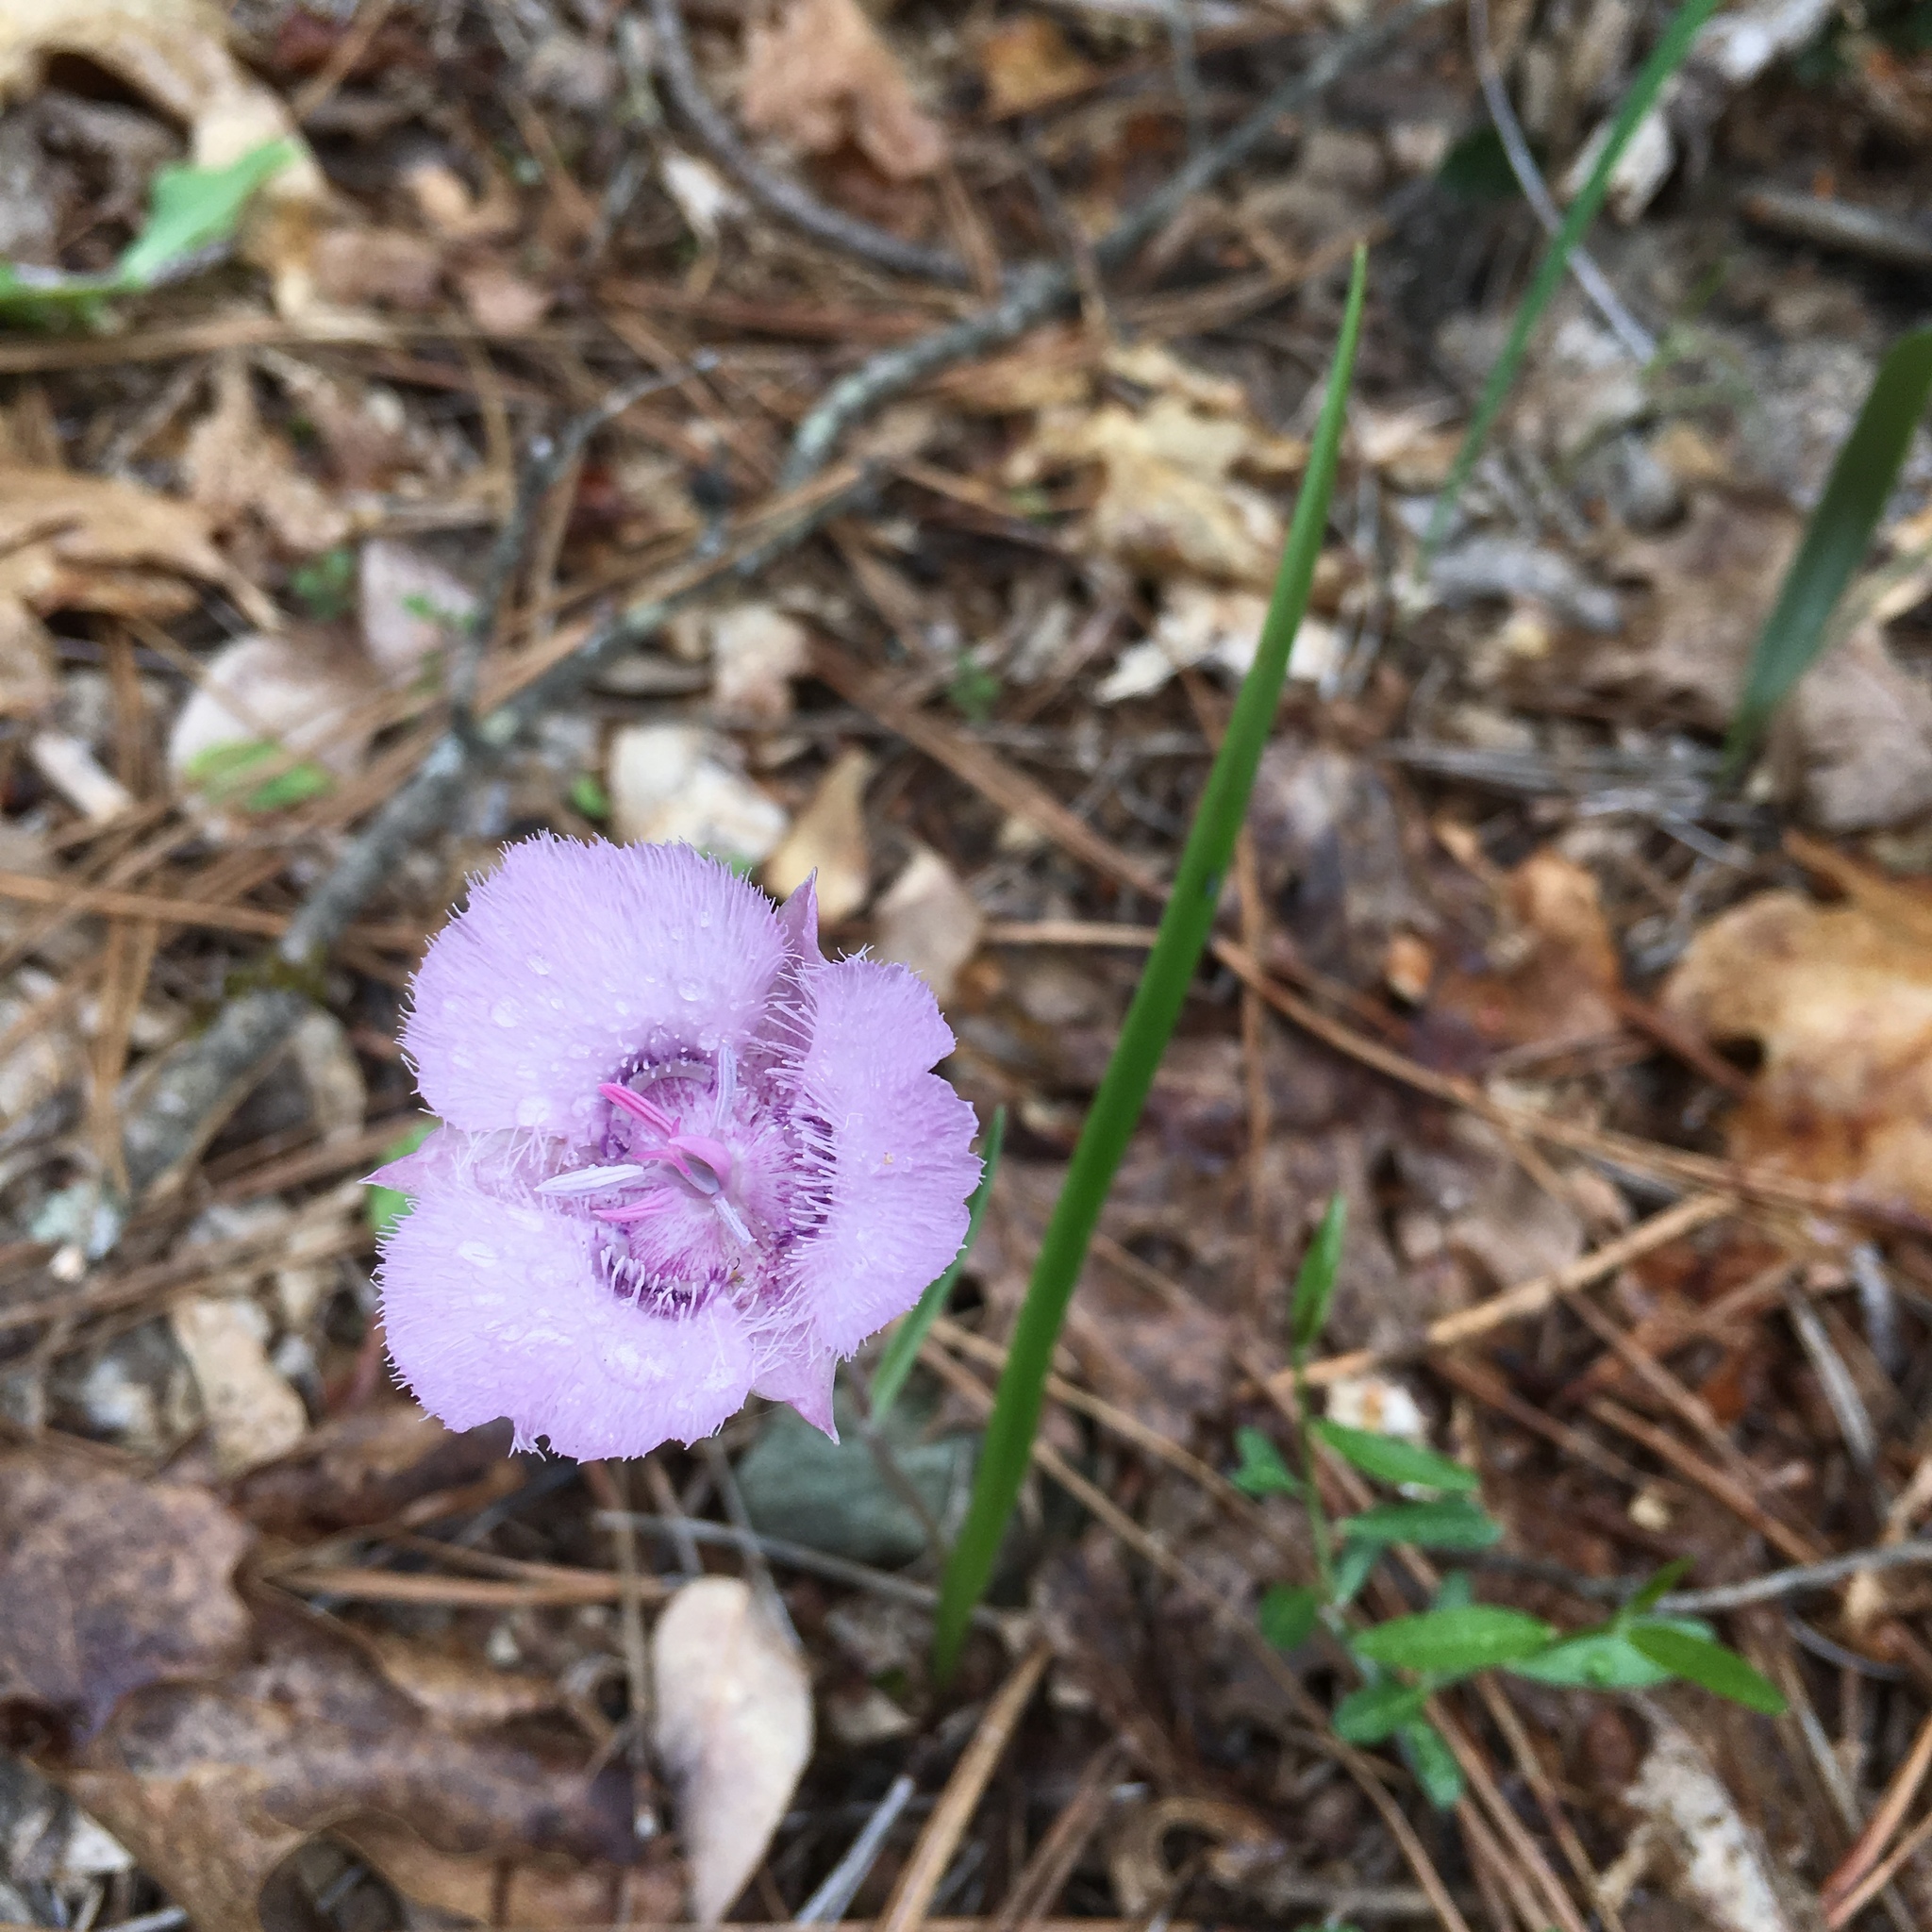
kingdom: Plantae
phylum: Tracheophyta
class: Liliopsida
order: Liliales
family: Liliaceae
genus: Calochortus
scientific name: Calochortus tolmiei
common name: Pussy-ears
